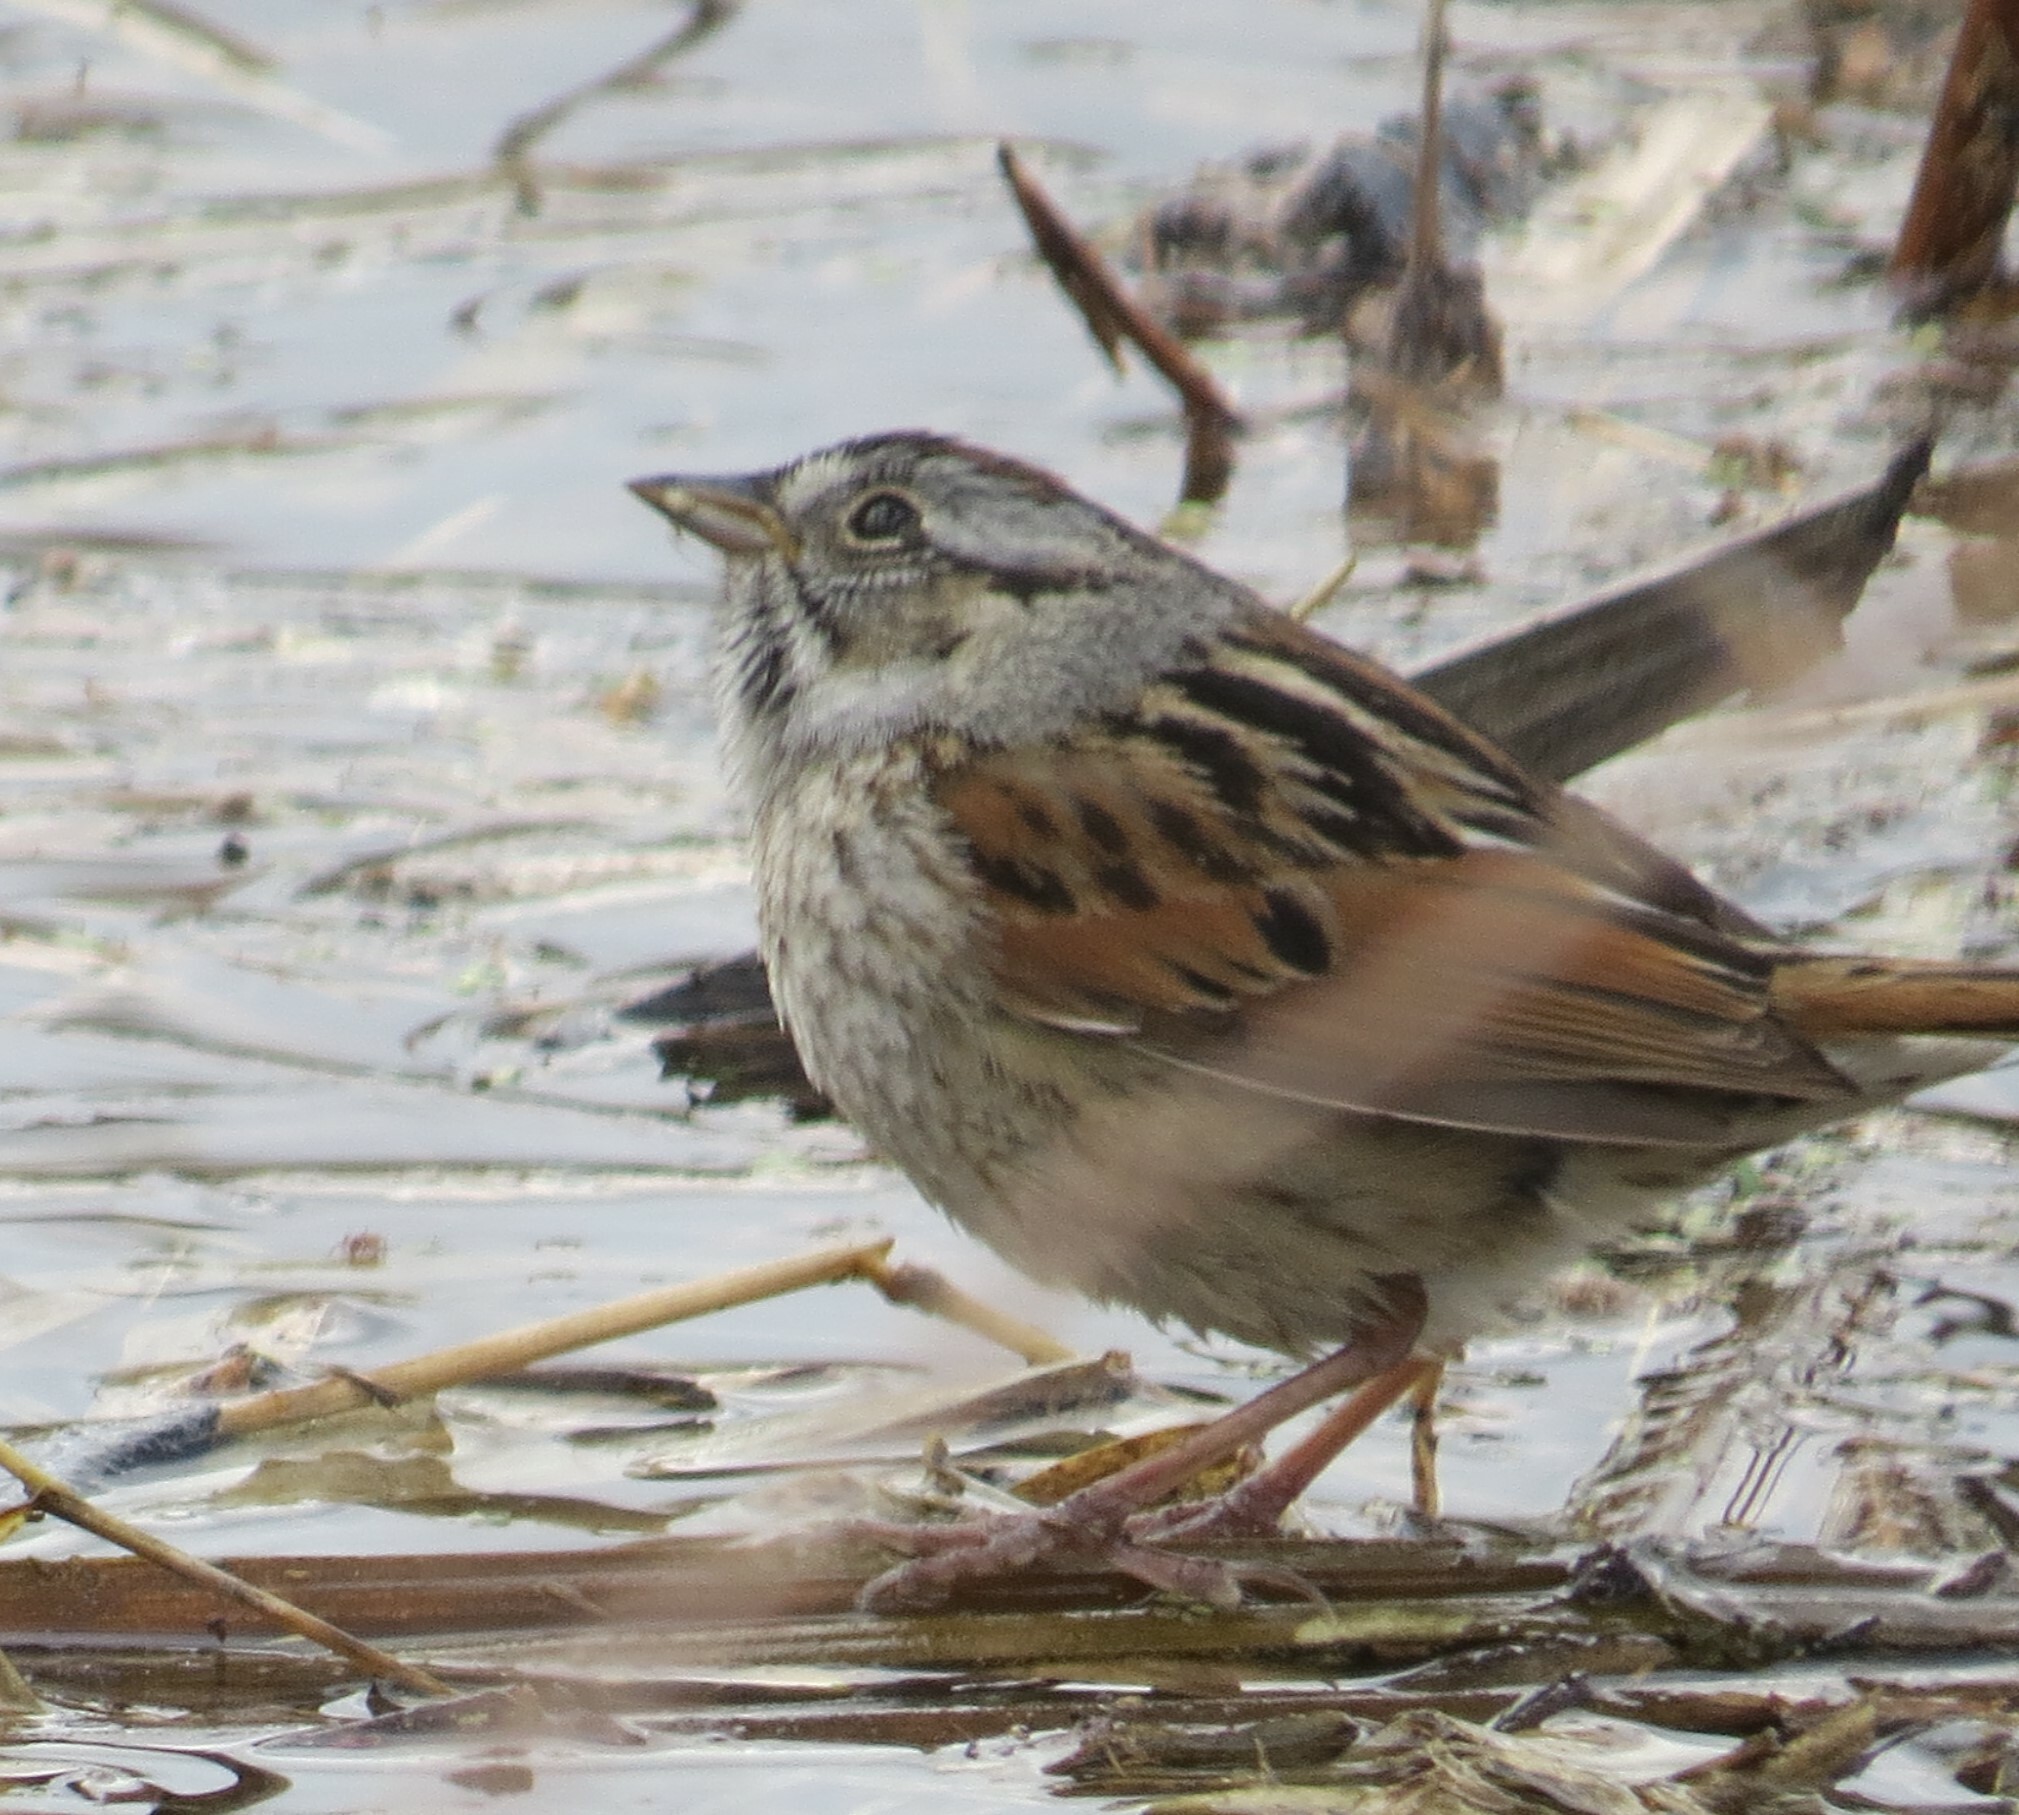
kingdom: Animalia
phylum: Chordata
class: Aves
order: Passeriformes
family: Passerellidae
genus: Melospiza
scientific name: Melospiza georgiana
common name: Swamp sparrow
